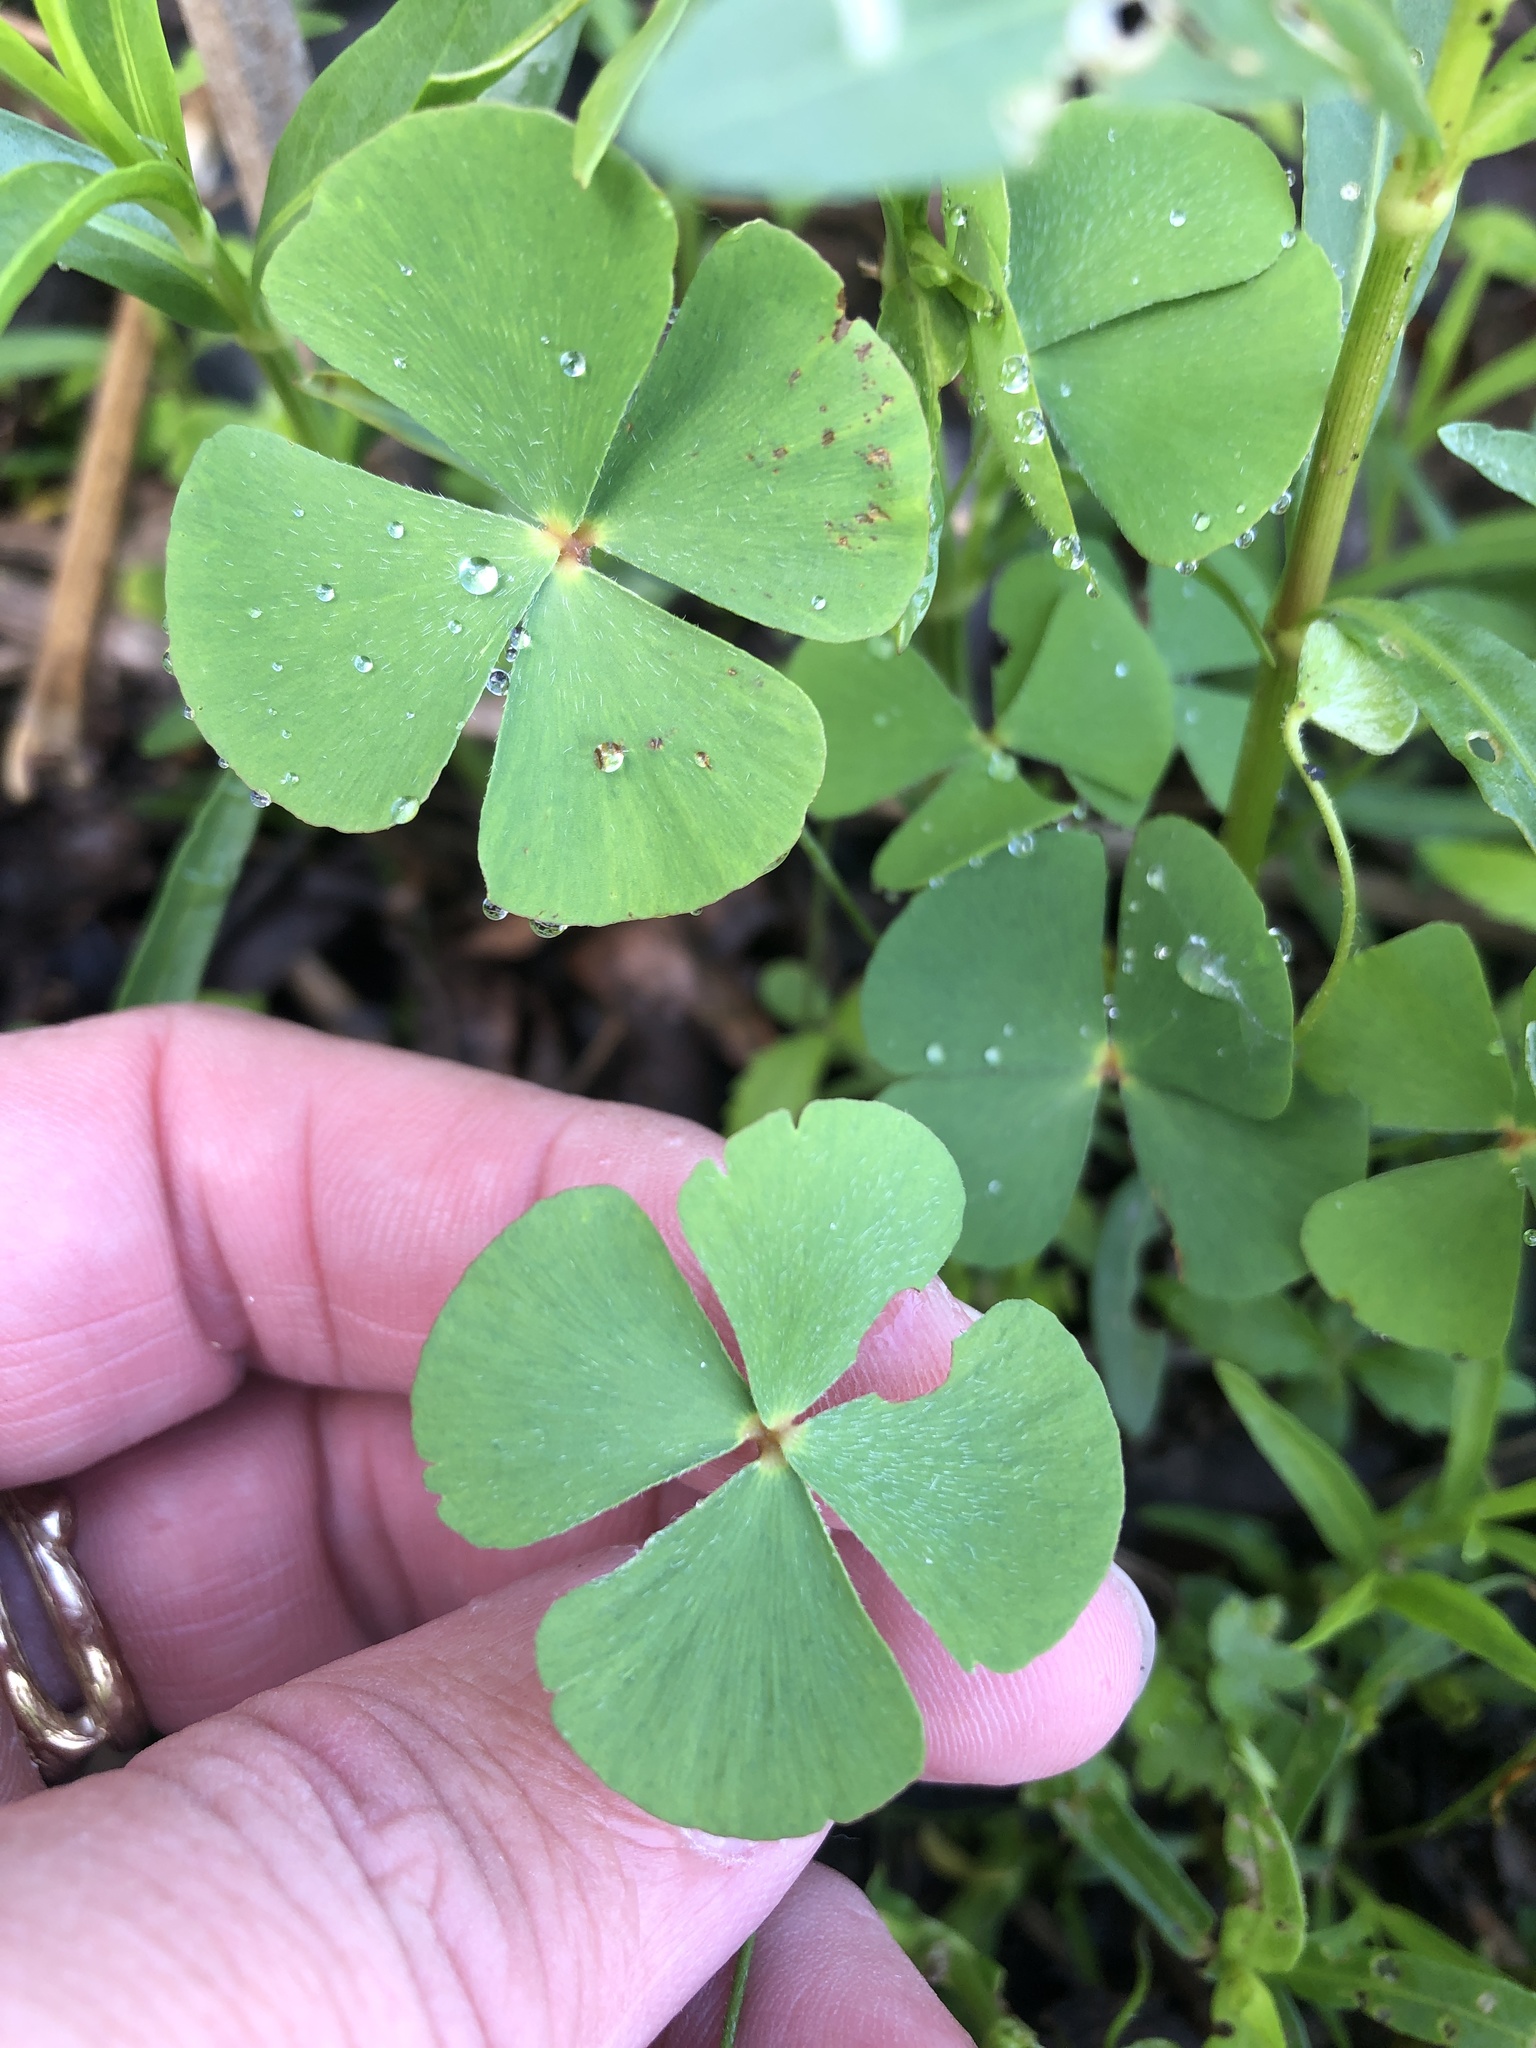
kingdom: Plantae
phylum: Tracheophyta
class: Polypodiopsida
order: Salviniales
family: Marsileaceae
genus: Marsilea
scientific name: Marsilea vestita
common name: Hooked-pepperwort
